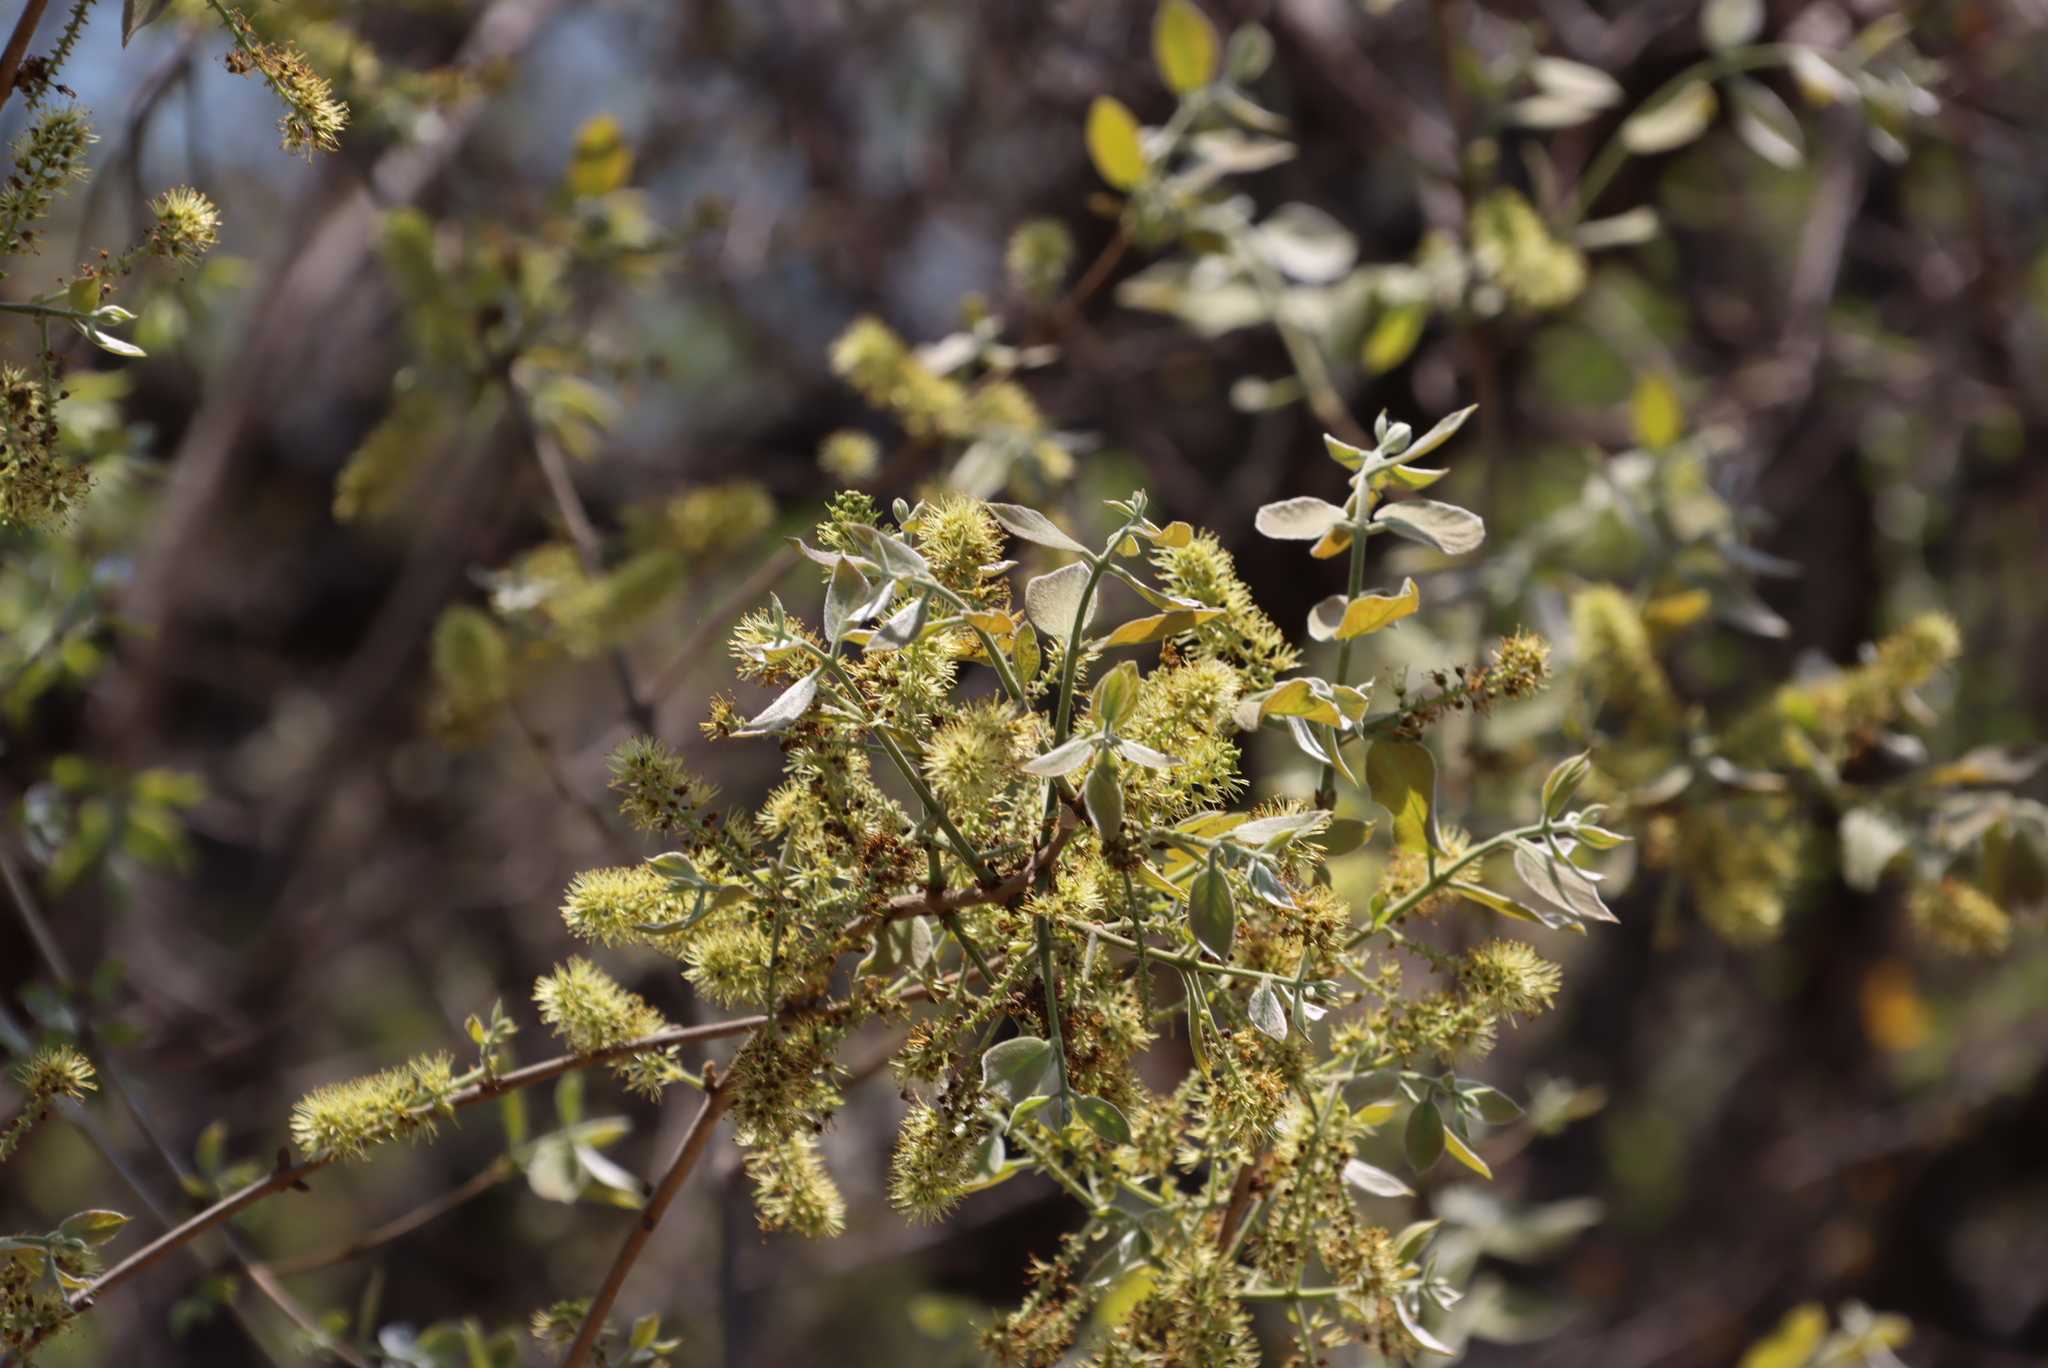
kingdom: Plantae
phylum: Tracheophyta
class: Magnoliopsida
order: Myrtales
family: Combretaceae
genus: Combretum
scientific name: Combretum molle
